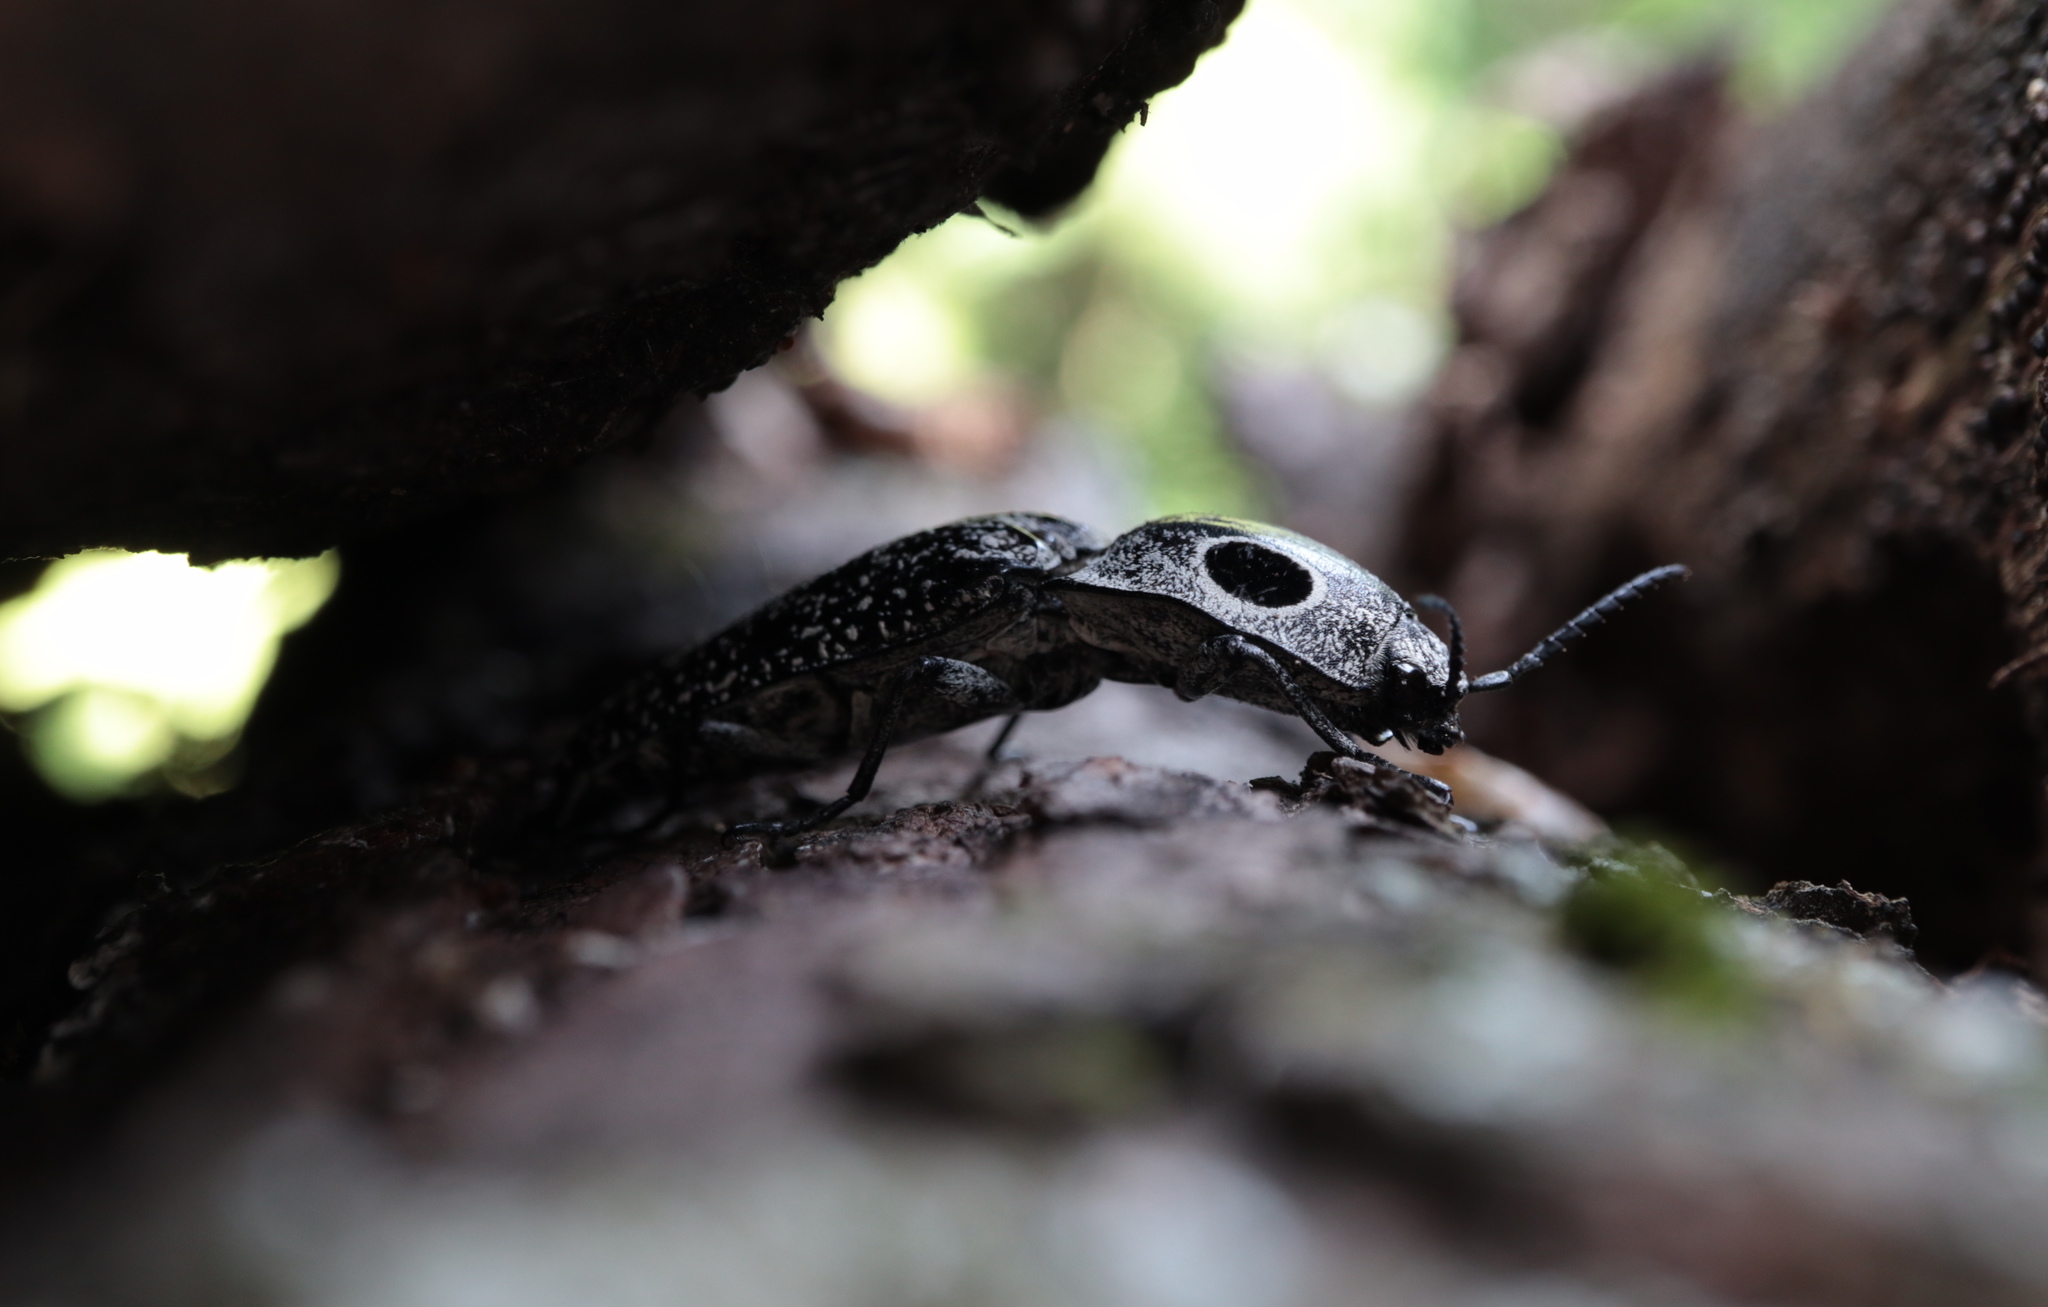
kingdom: Animalia
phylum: Arthropoda
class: Insecta
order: Coleoptera
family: Elateridae
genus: Alaus
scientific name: Alaus oculatus
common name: Eastern eyed click beetle
